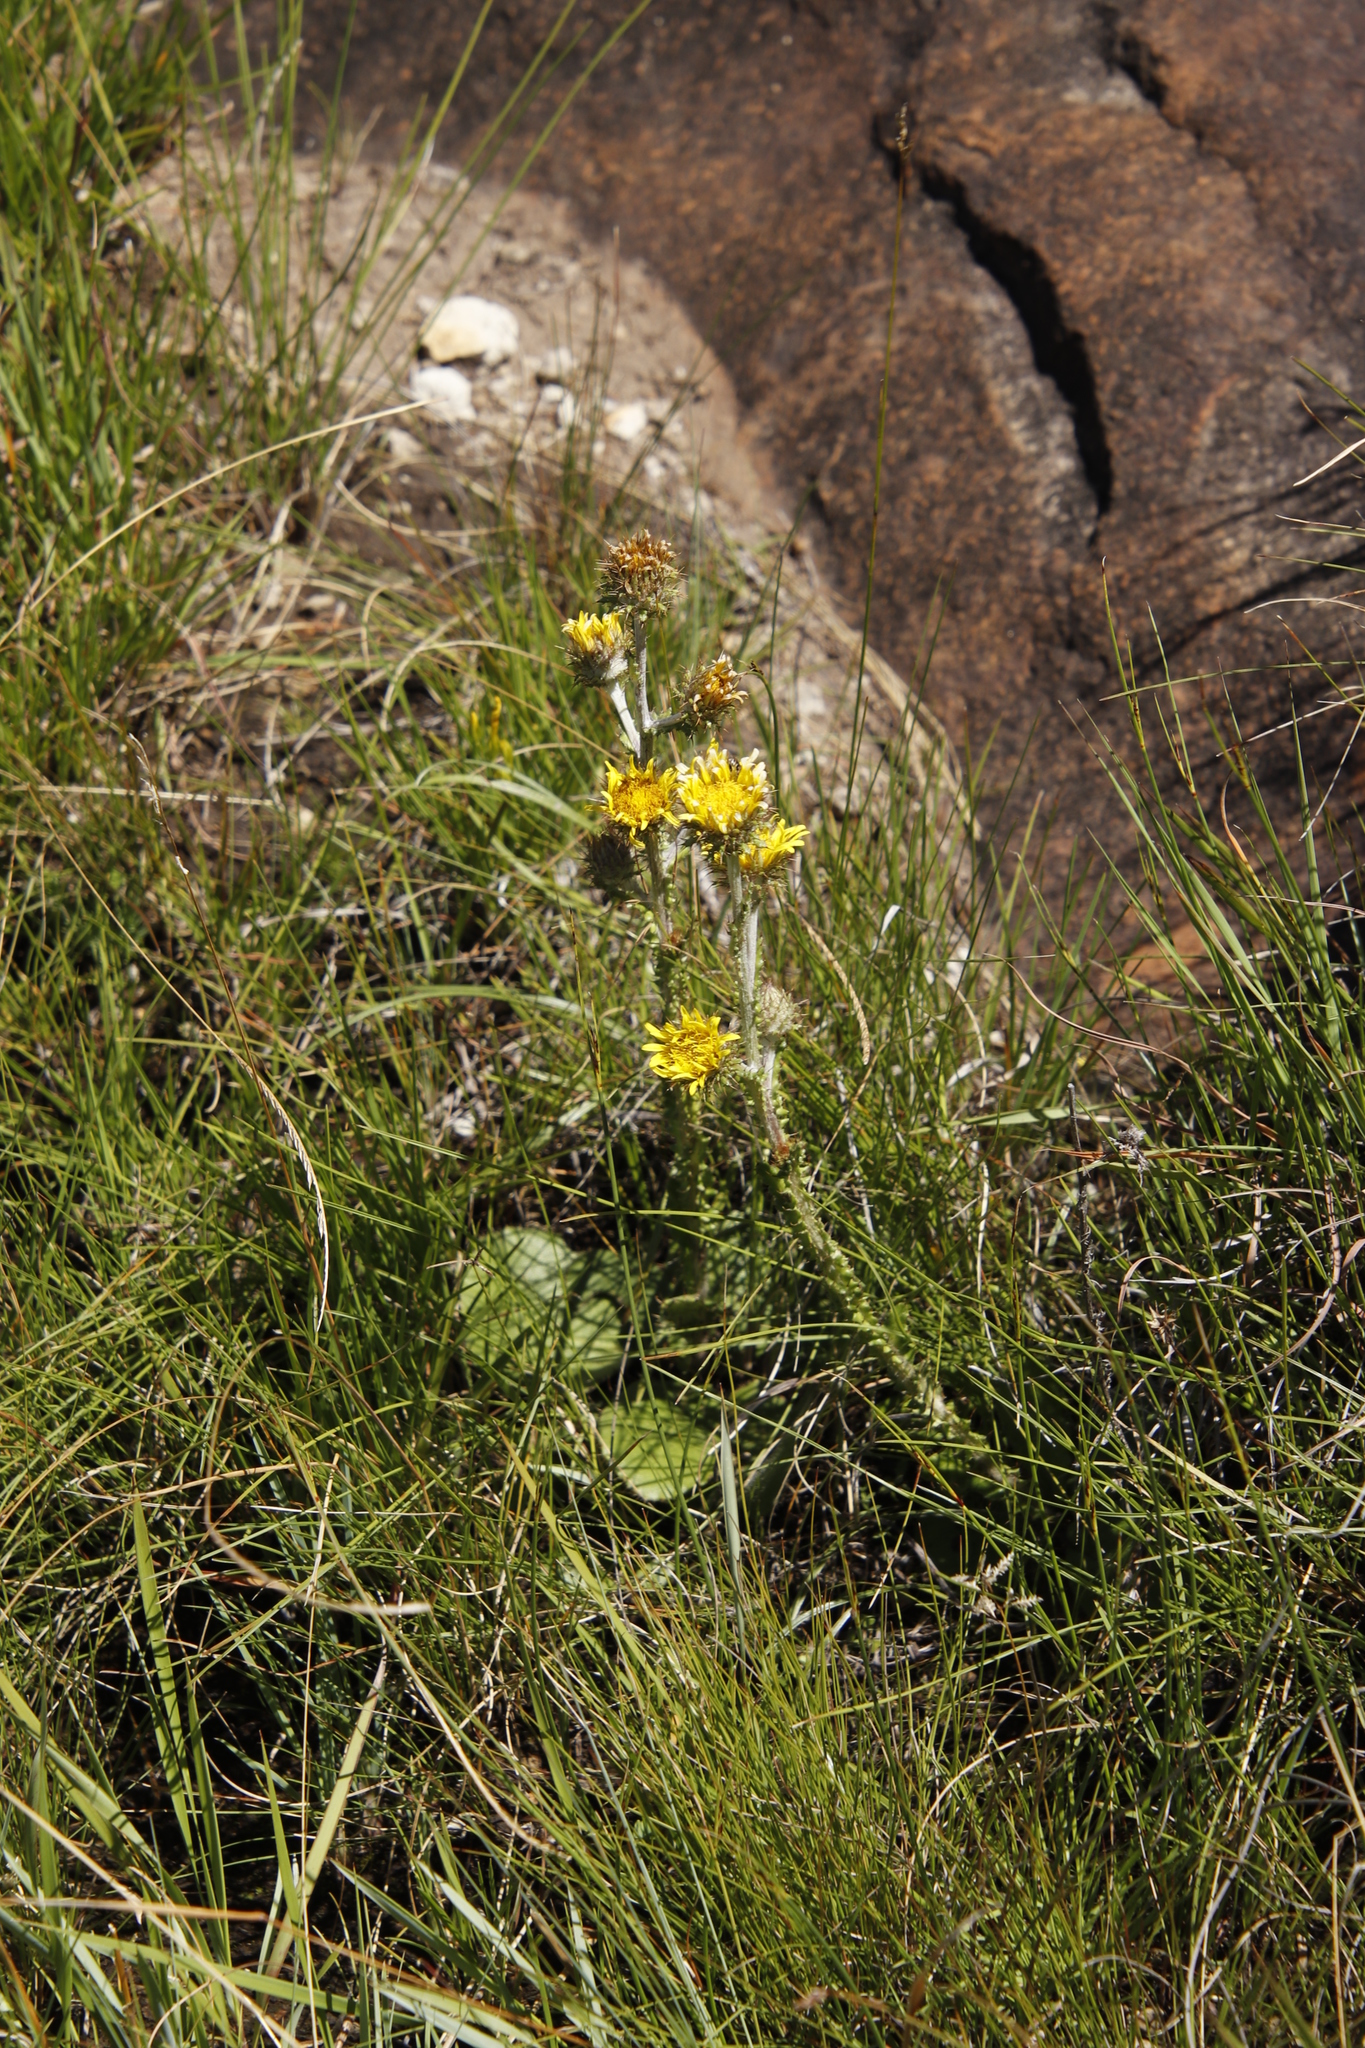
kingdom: Plantae
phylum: Tracheophyta
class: Magnoliopsida
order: Asterales
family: Asteraceae
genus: Berkheya
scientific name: Berkheya rhapontica
